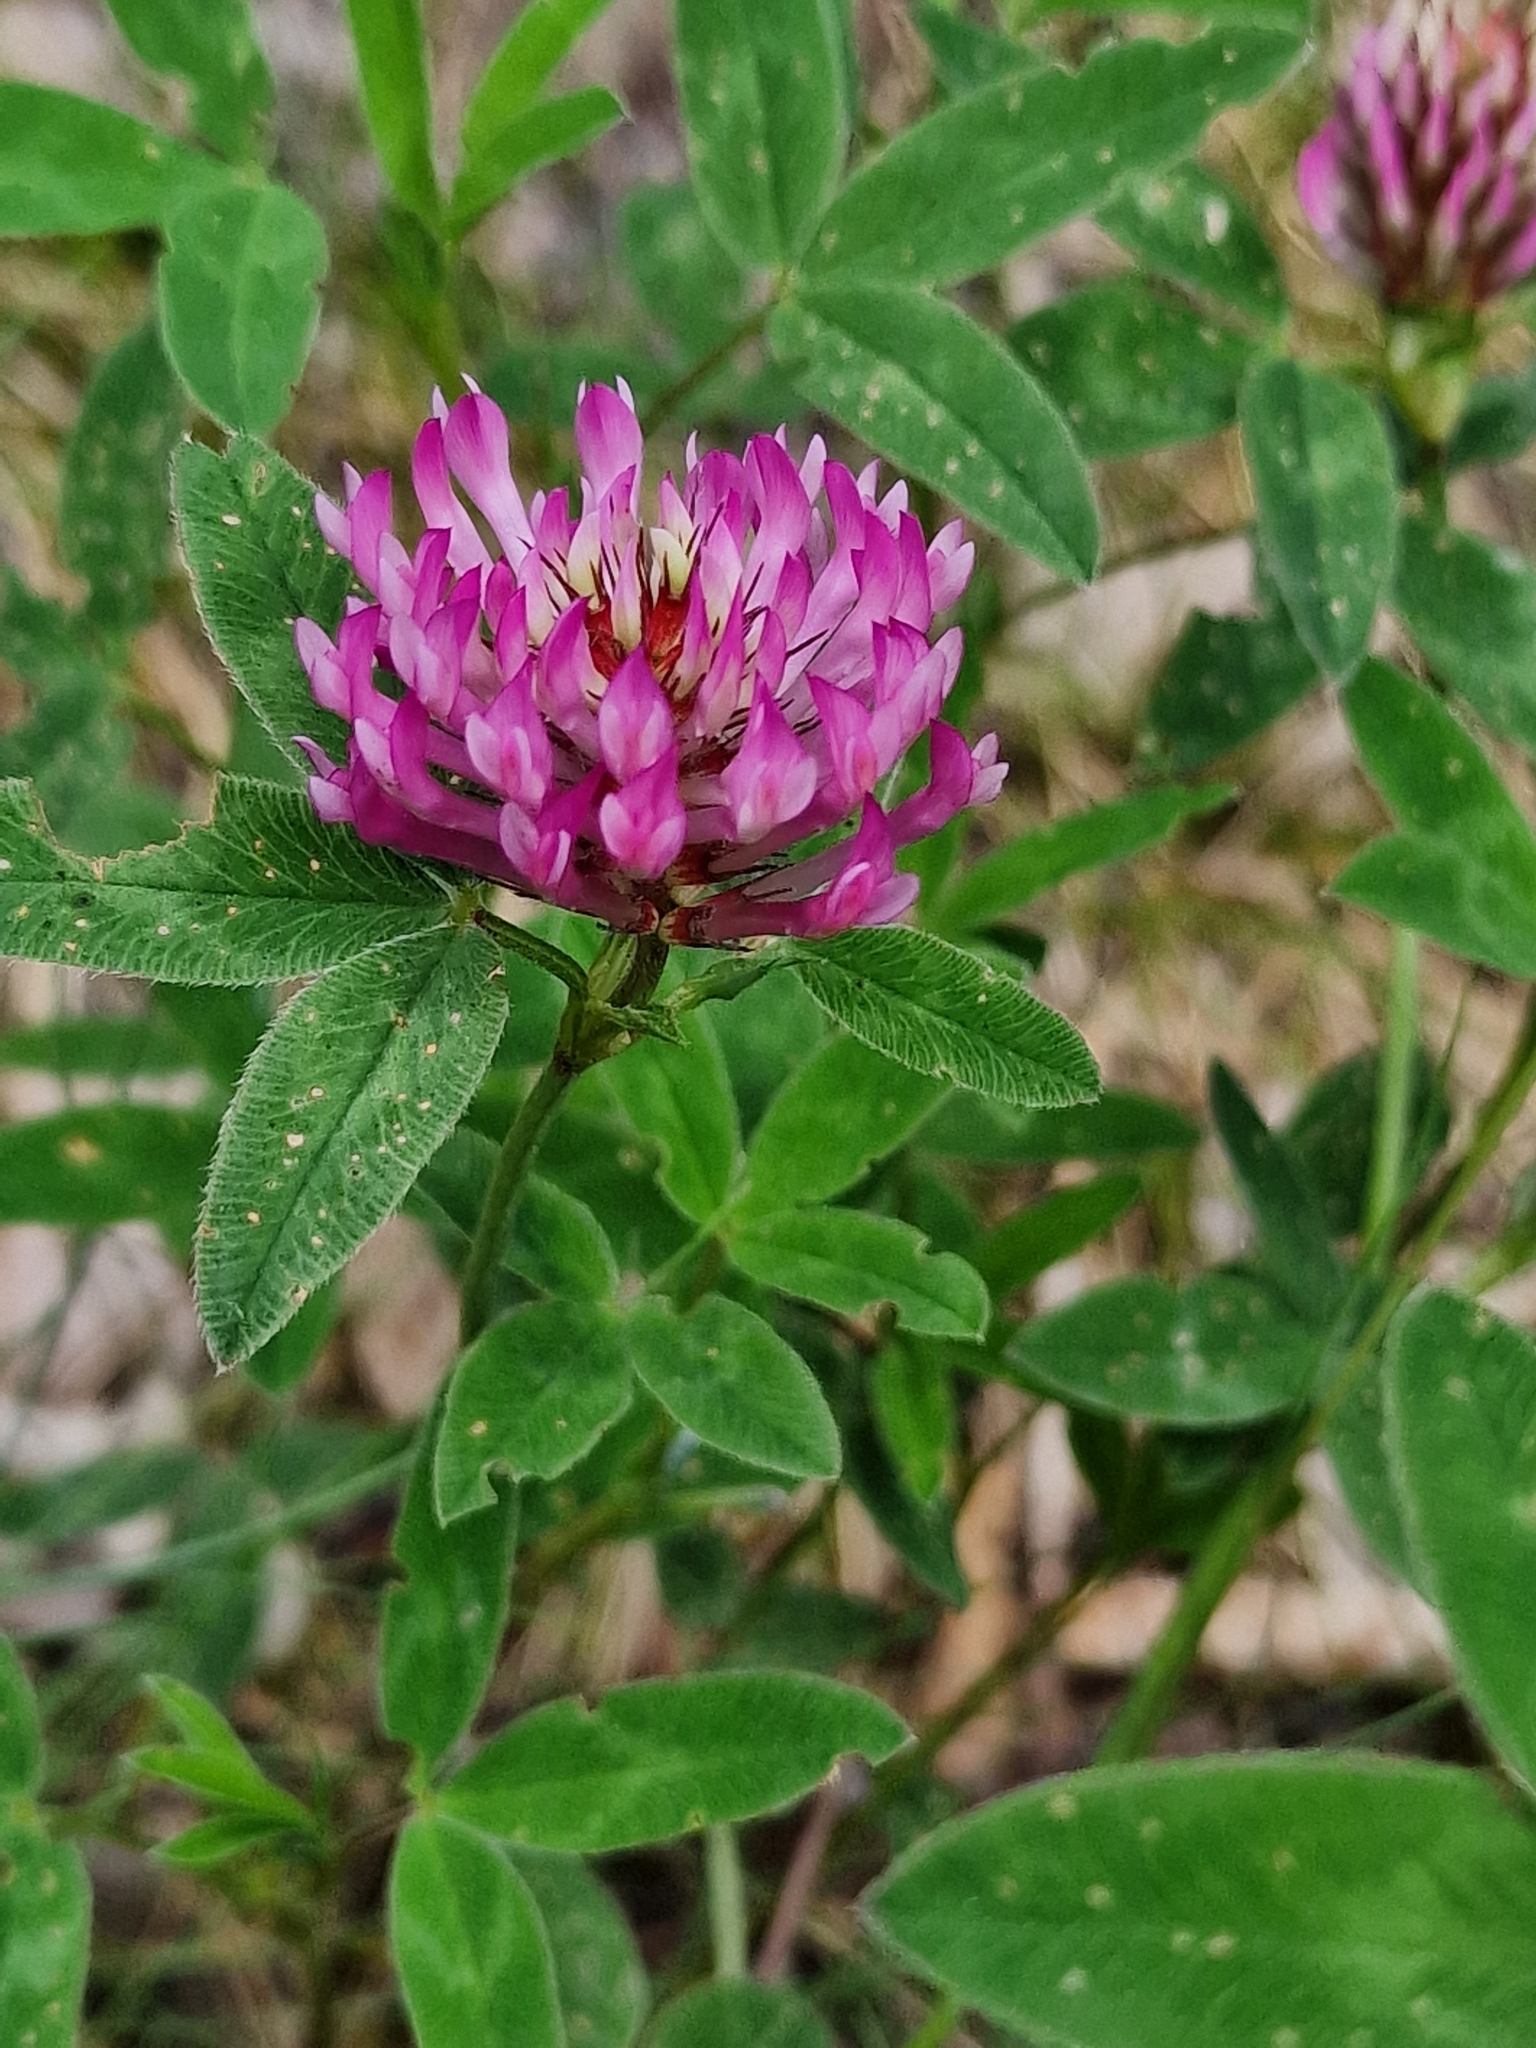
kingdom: Plantae
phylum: Tracheophyta
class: Magnoliopsida
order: Fabales
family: Fabaceae
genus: Trifolium
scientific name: Trifolium medium
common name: Zigzag clover
